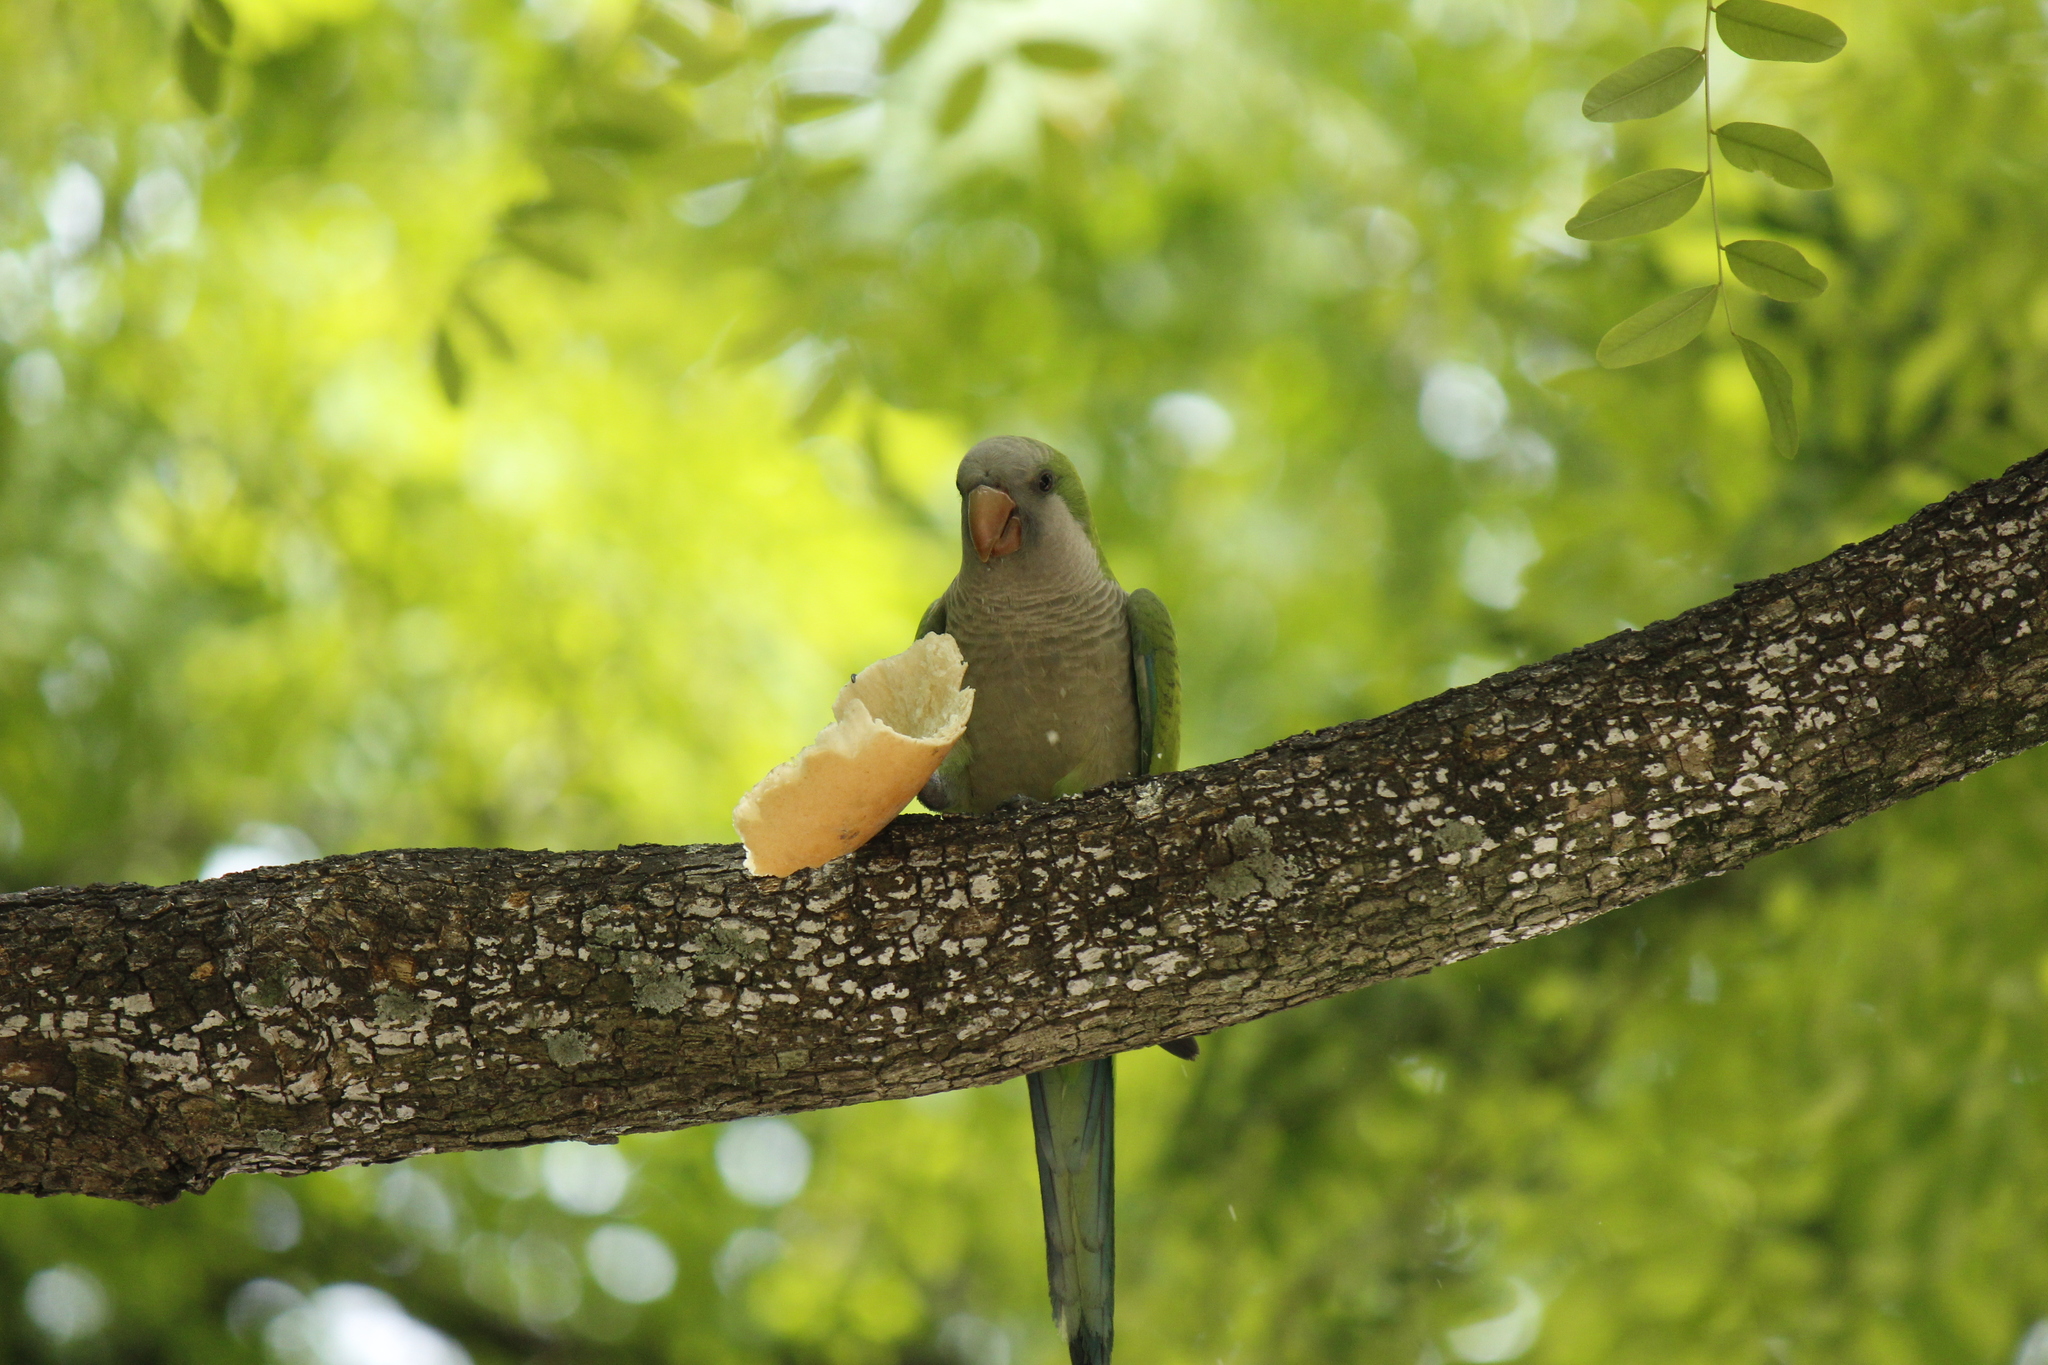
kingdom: Animalia
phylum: Chordata
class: Aves
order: Psittaciformes
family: Psittacidae
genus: Myiopsitta
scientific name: Myiopsitta monachus
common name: Monk parakeet
